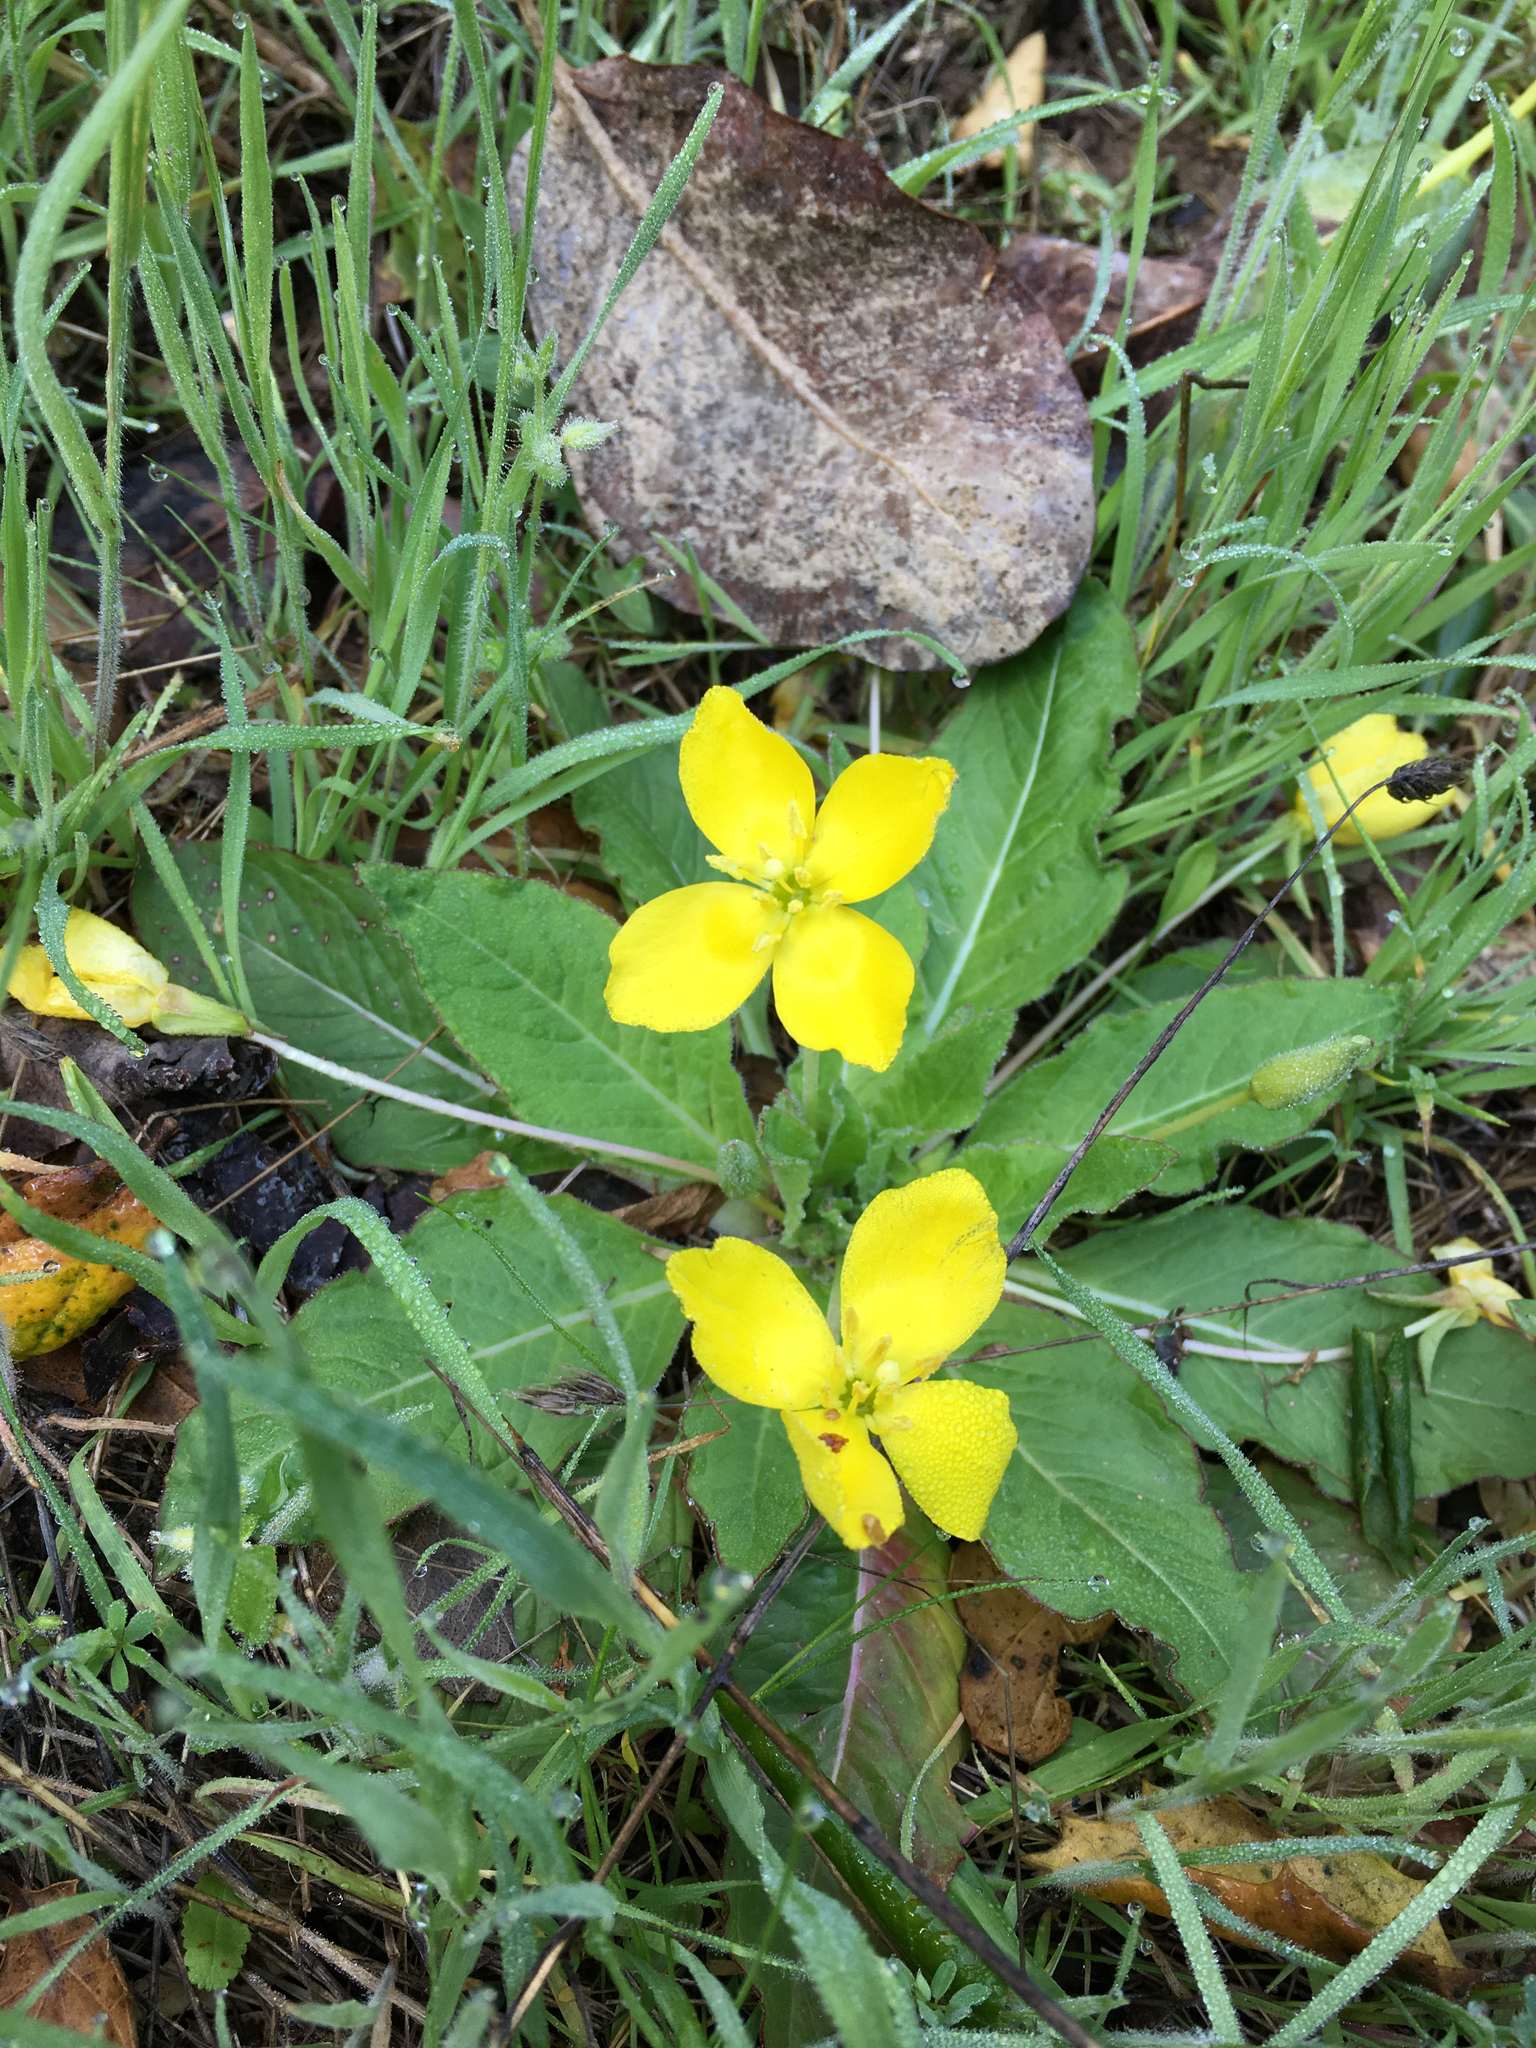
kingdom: Plantae
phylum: Tracheophyta
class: Magnoliopsida
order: Myrtales
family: Onagraceae
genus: Taraxia
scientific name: Taraxia ovata
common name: Goldeneggs
